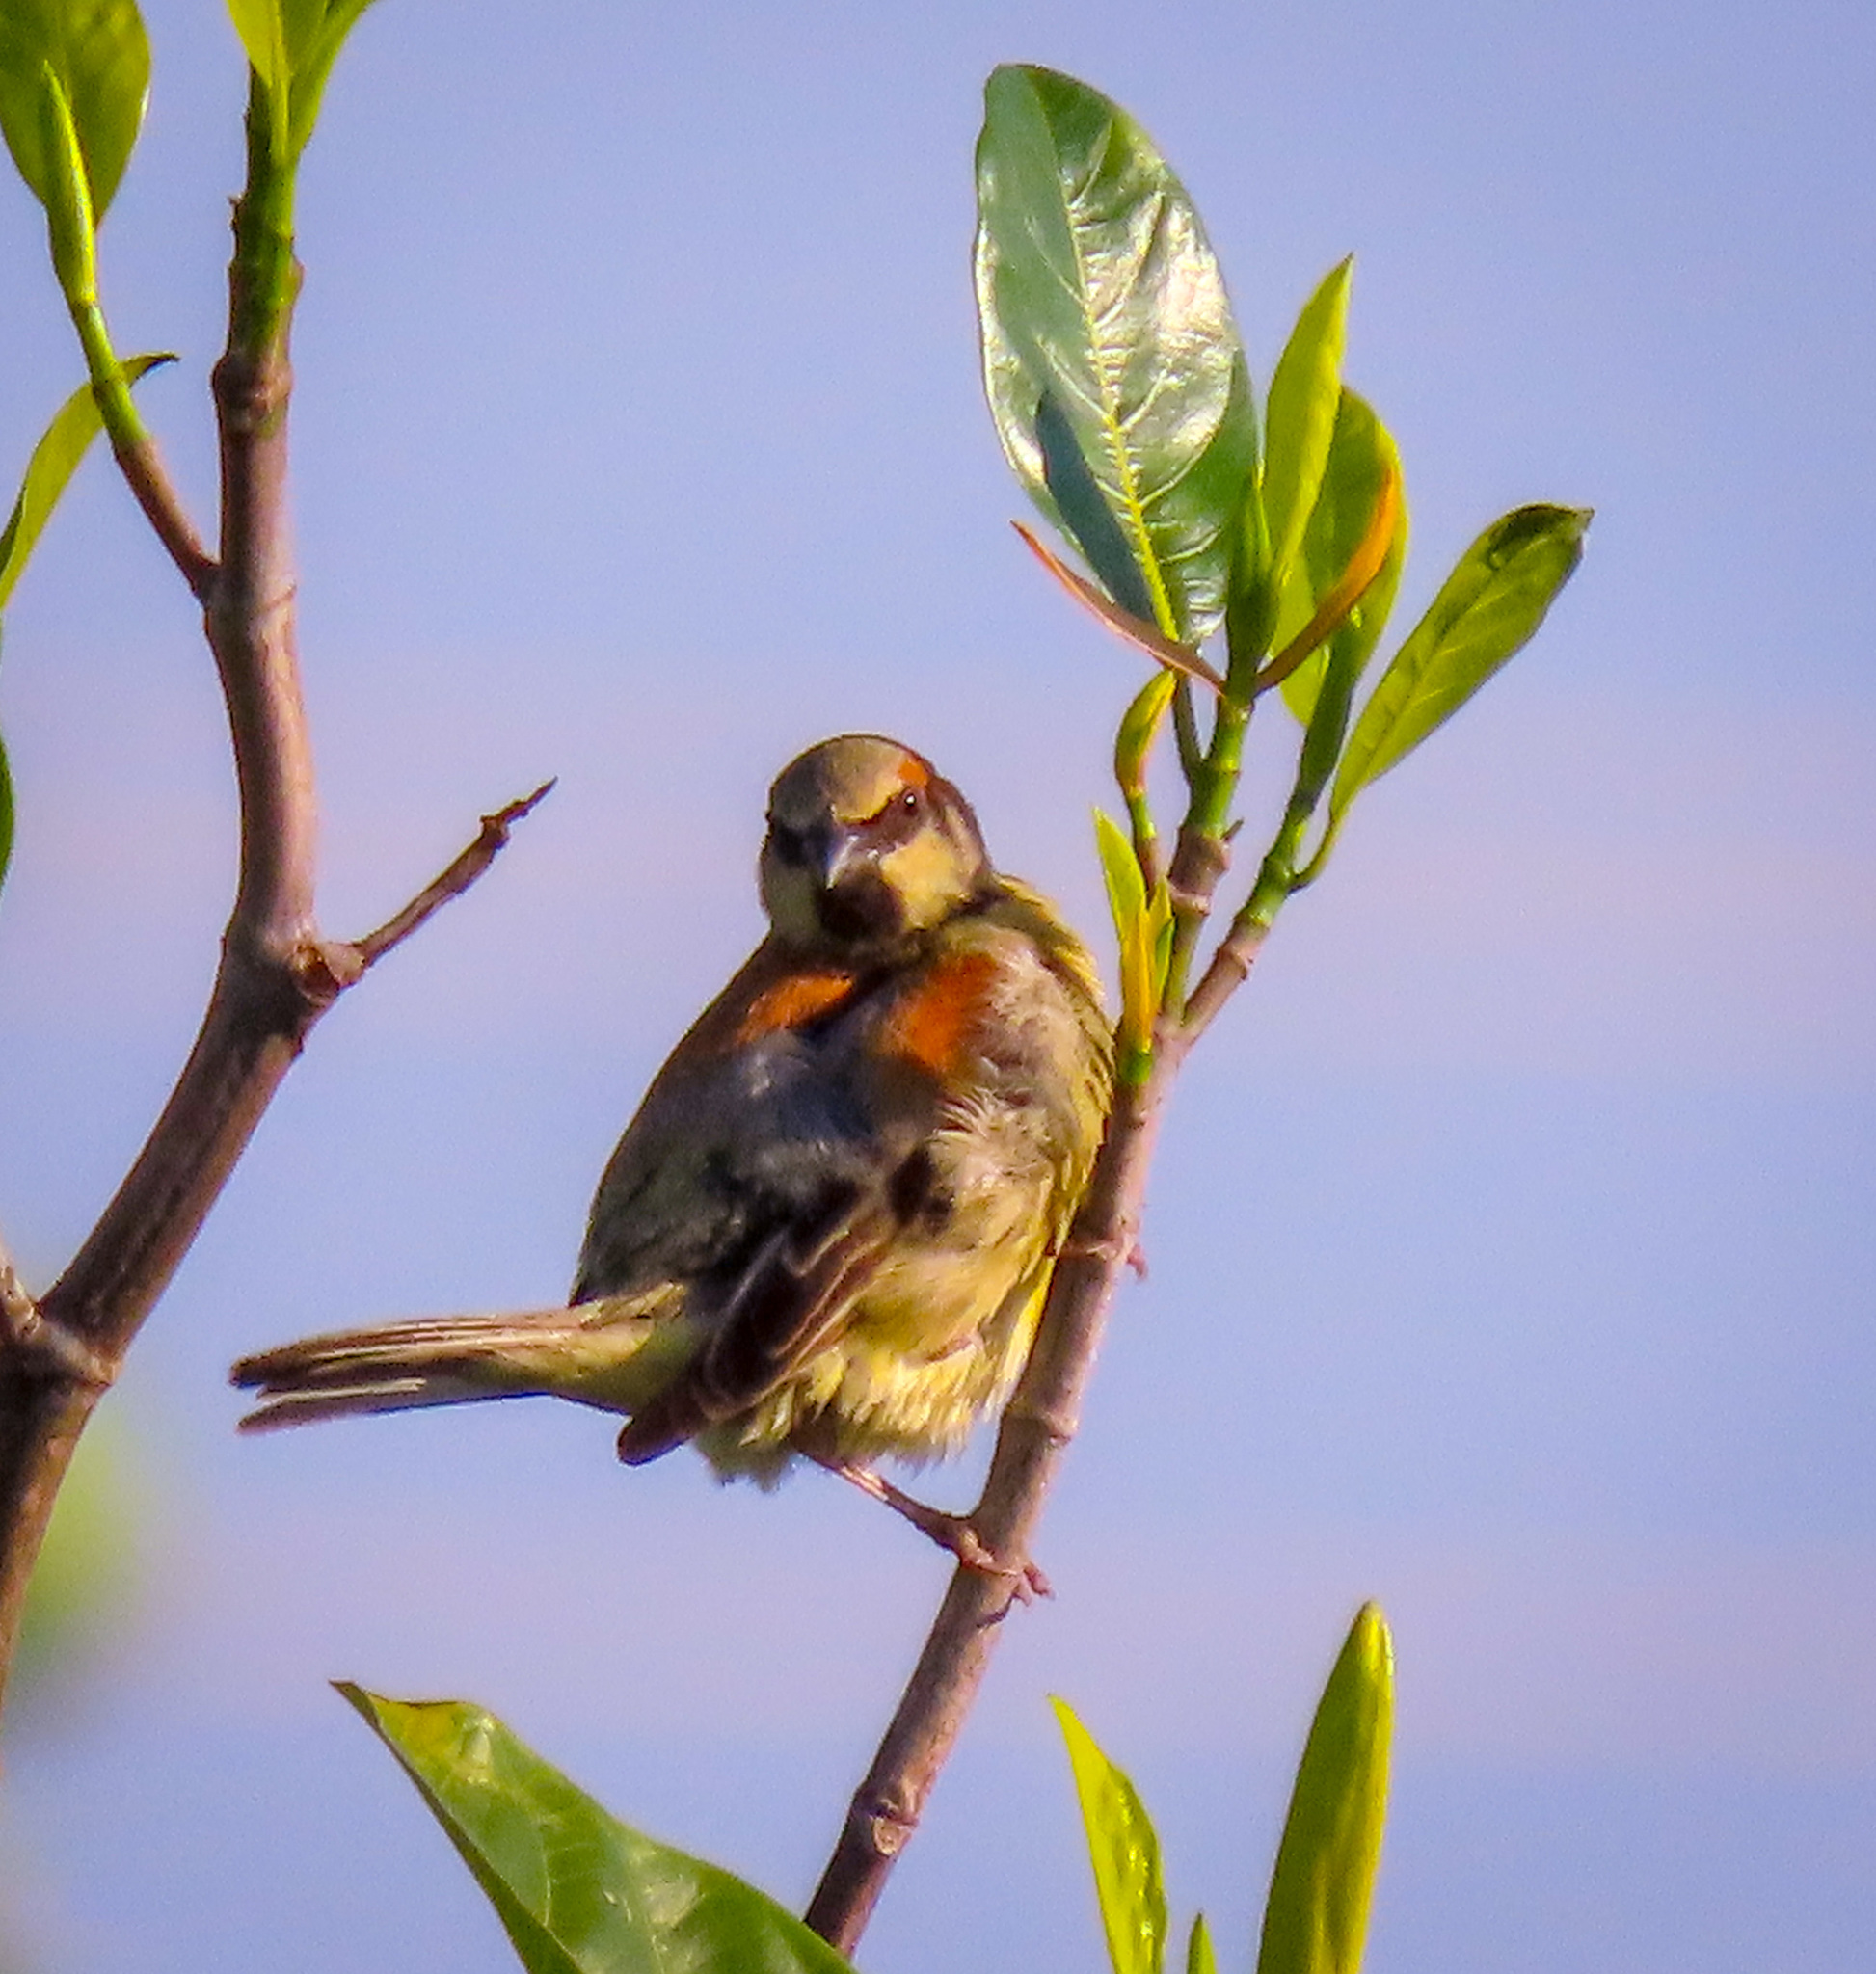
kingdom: Animalia
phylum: Chordata
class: Aves
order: Passeriformes
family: Passeridae
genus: Passer
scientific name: Passer flaveolus
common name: Plain-backed sparrow
